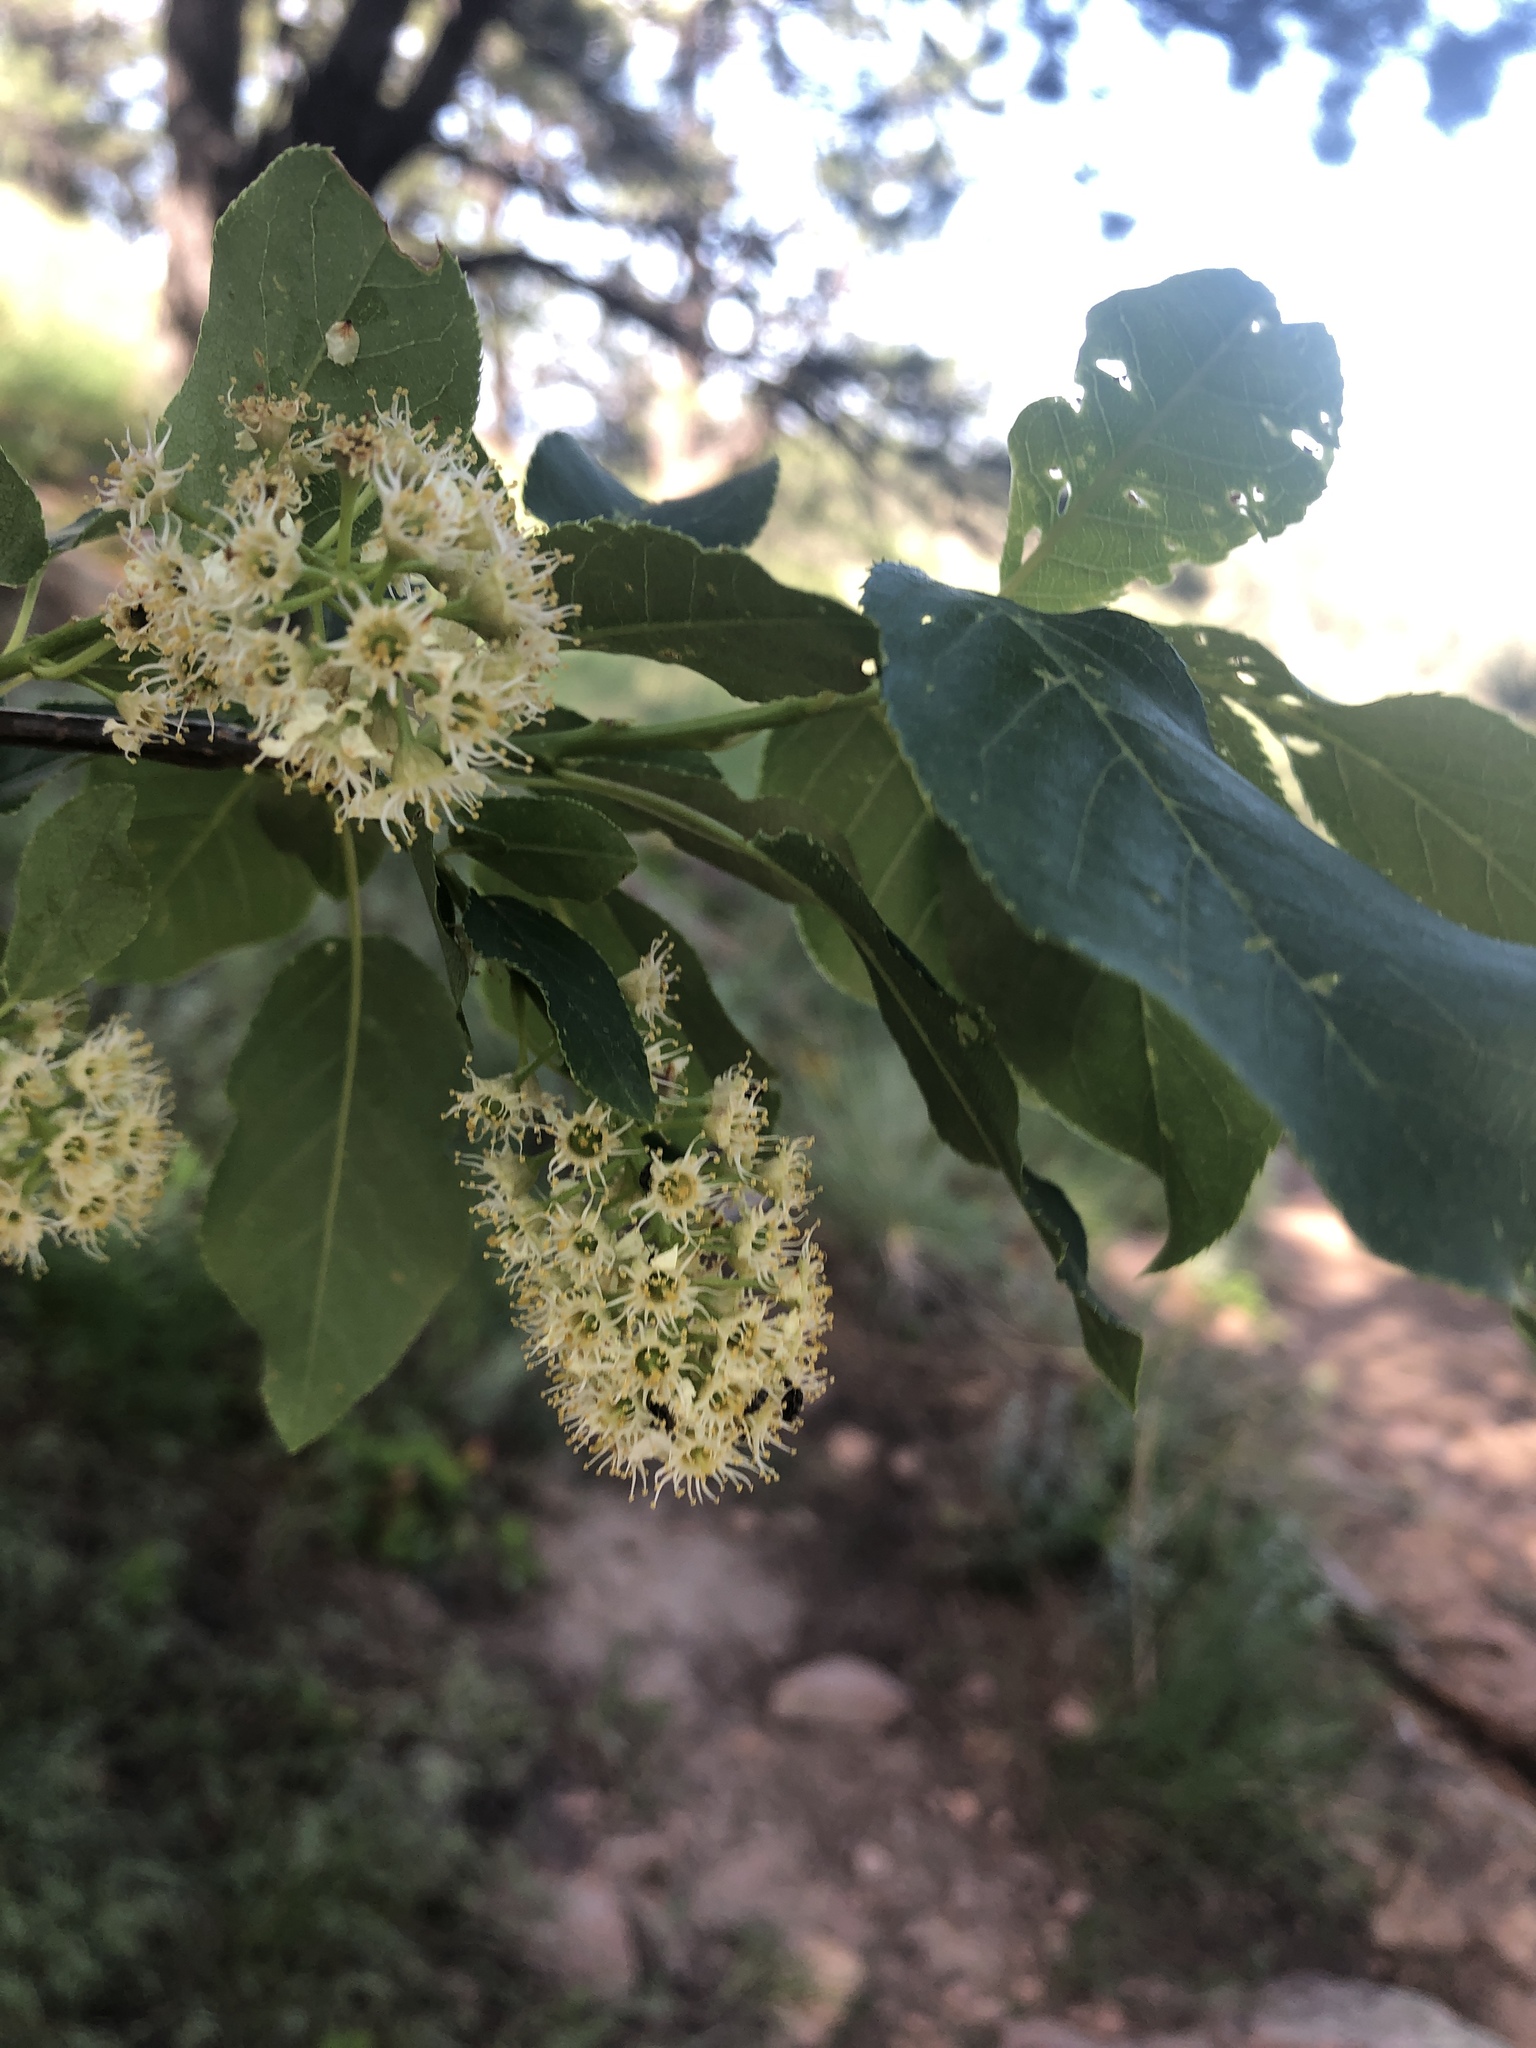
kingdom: Plantae
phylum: Tracheophyta
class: Magnoliopsida
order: Rosales
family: Rosaceae
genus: Prunus
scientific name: Prunus virginiana
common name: Chokecherry
